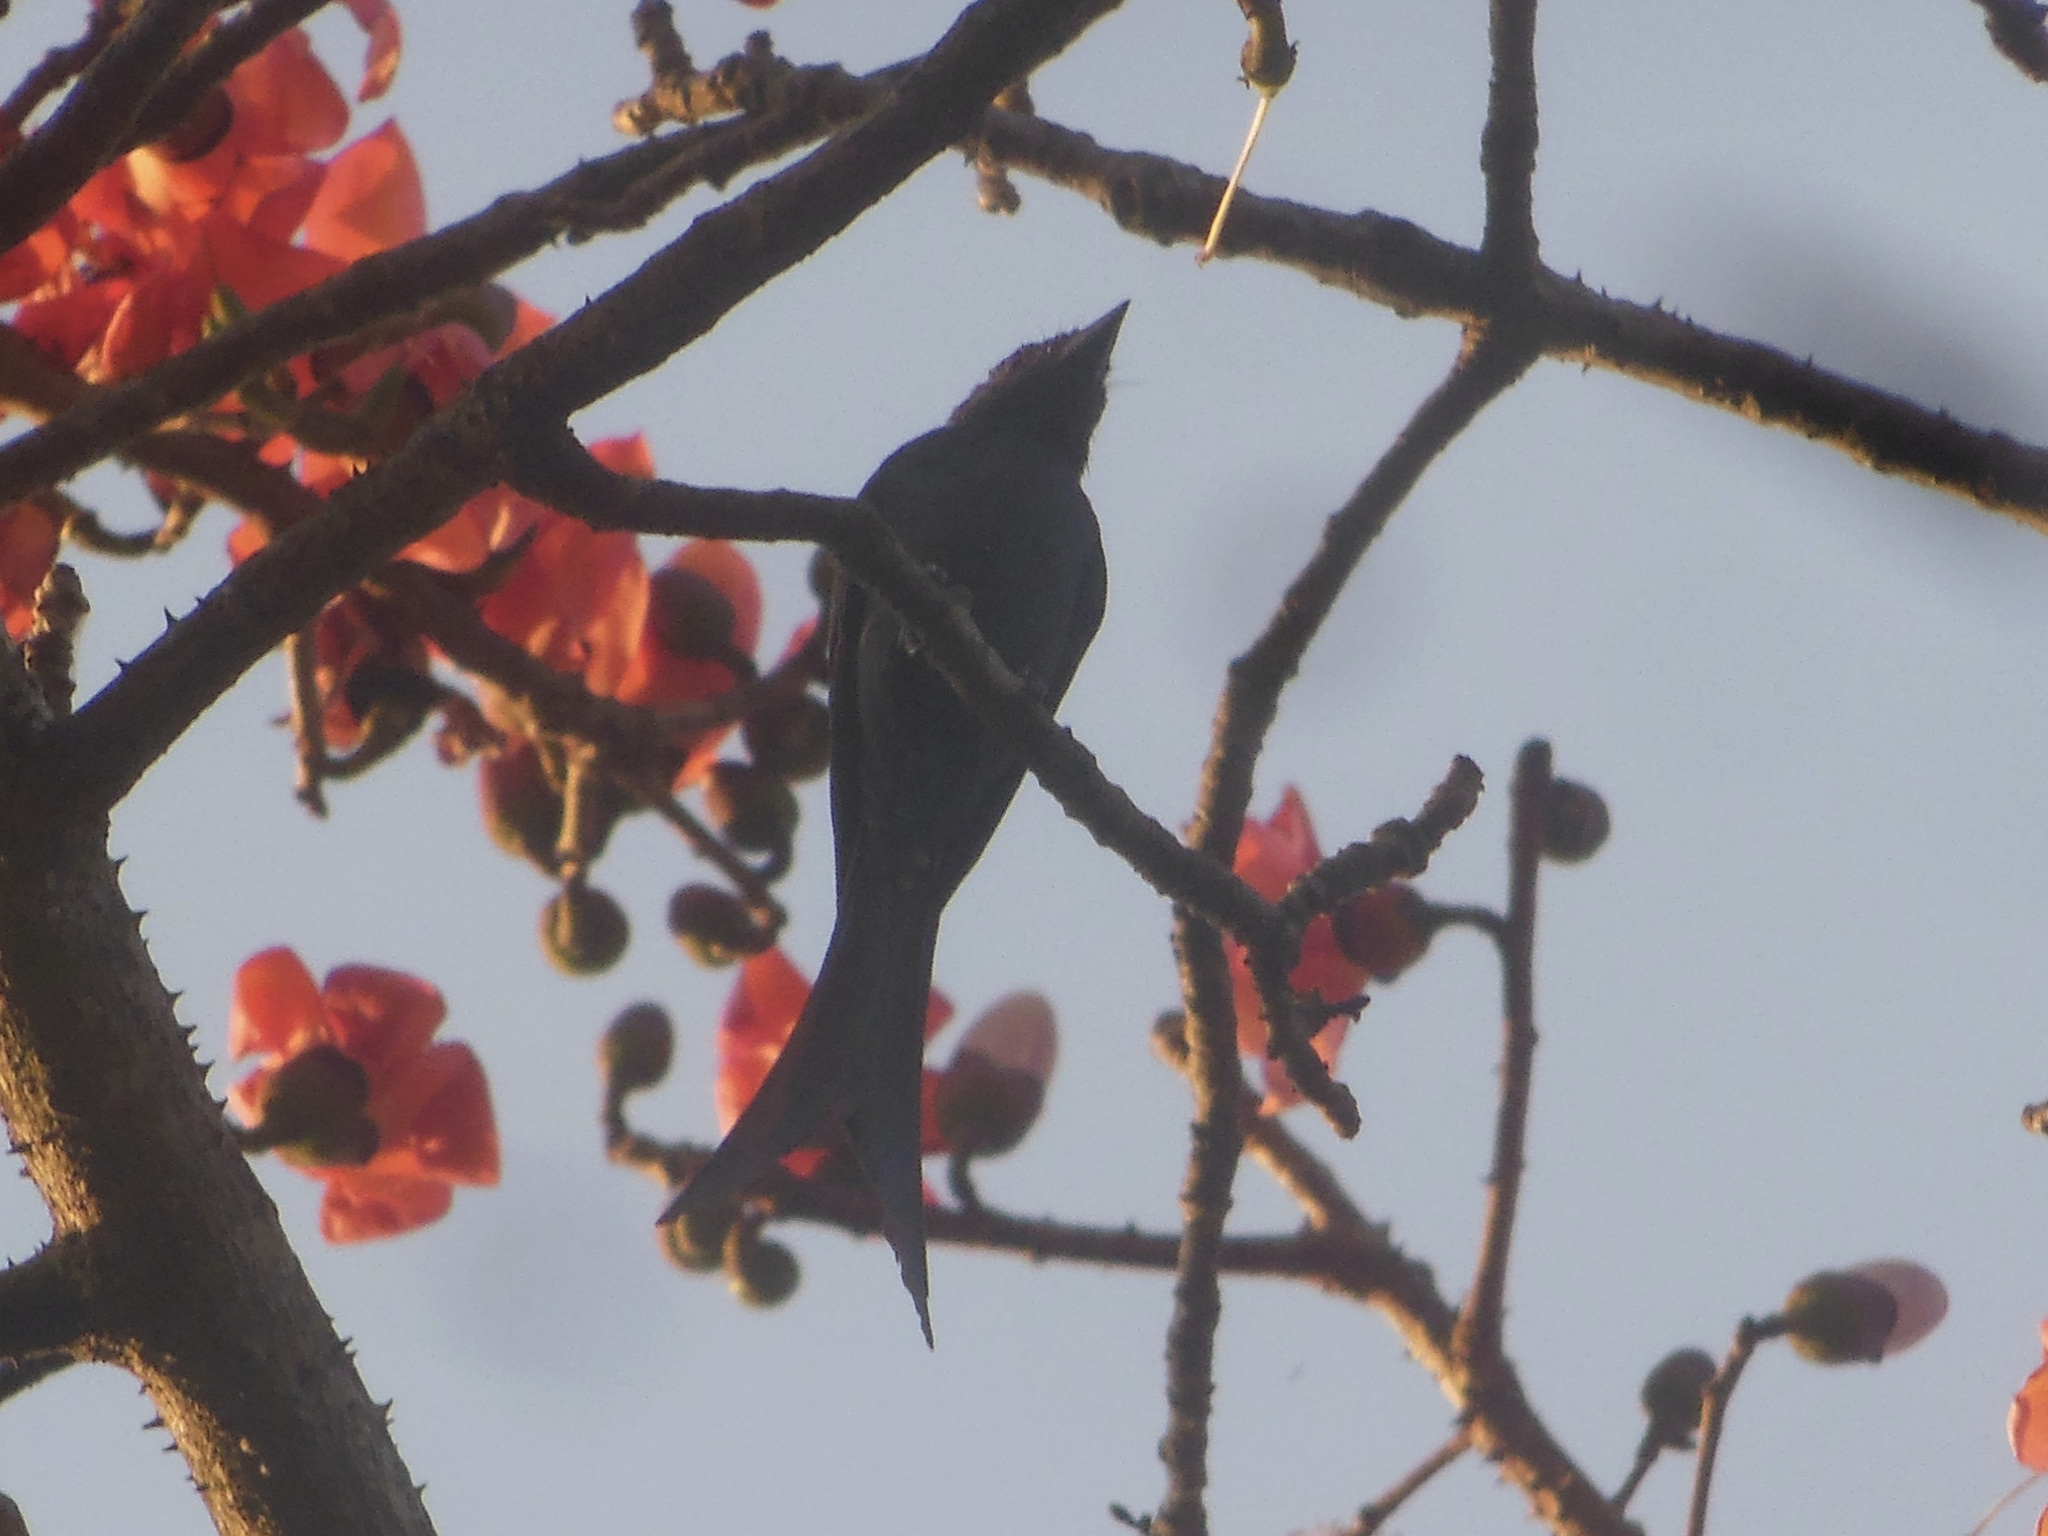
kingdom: Animalia
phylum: Chordata
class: Aves
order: Passeriformes
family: Dicruridae
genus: Dicrurus
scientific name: Dicrurus leucophaeus
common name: Ashy drongo
